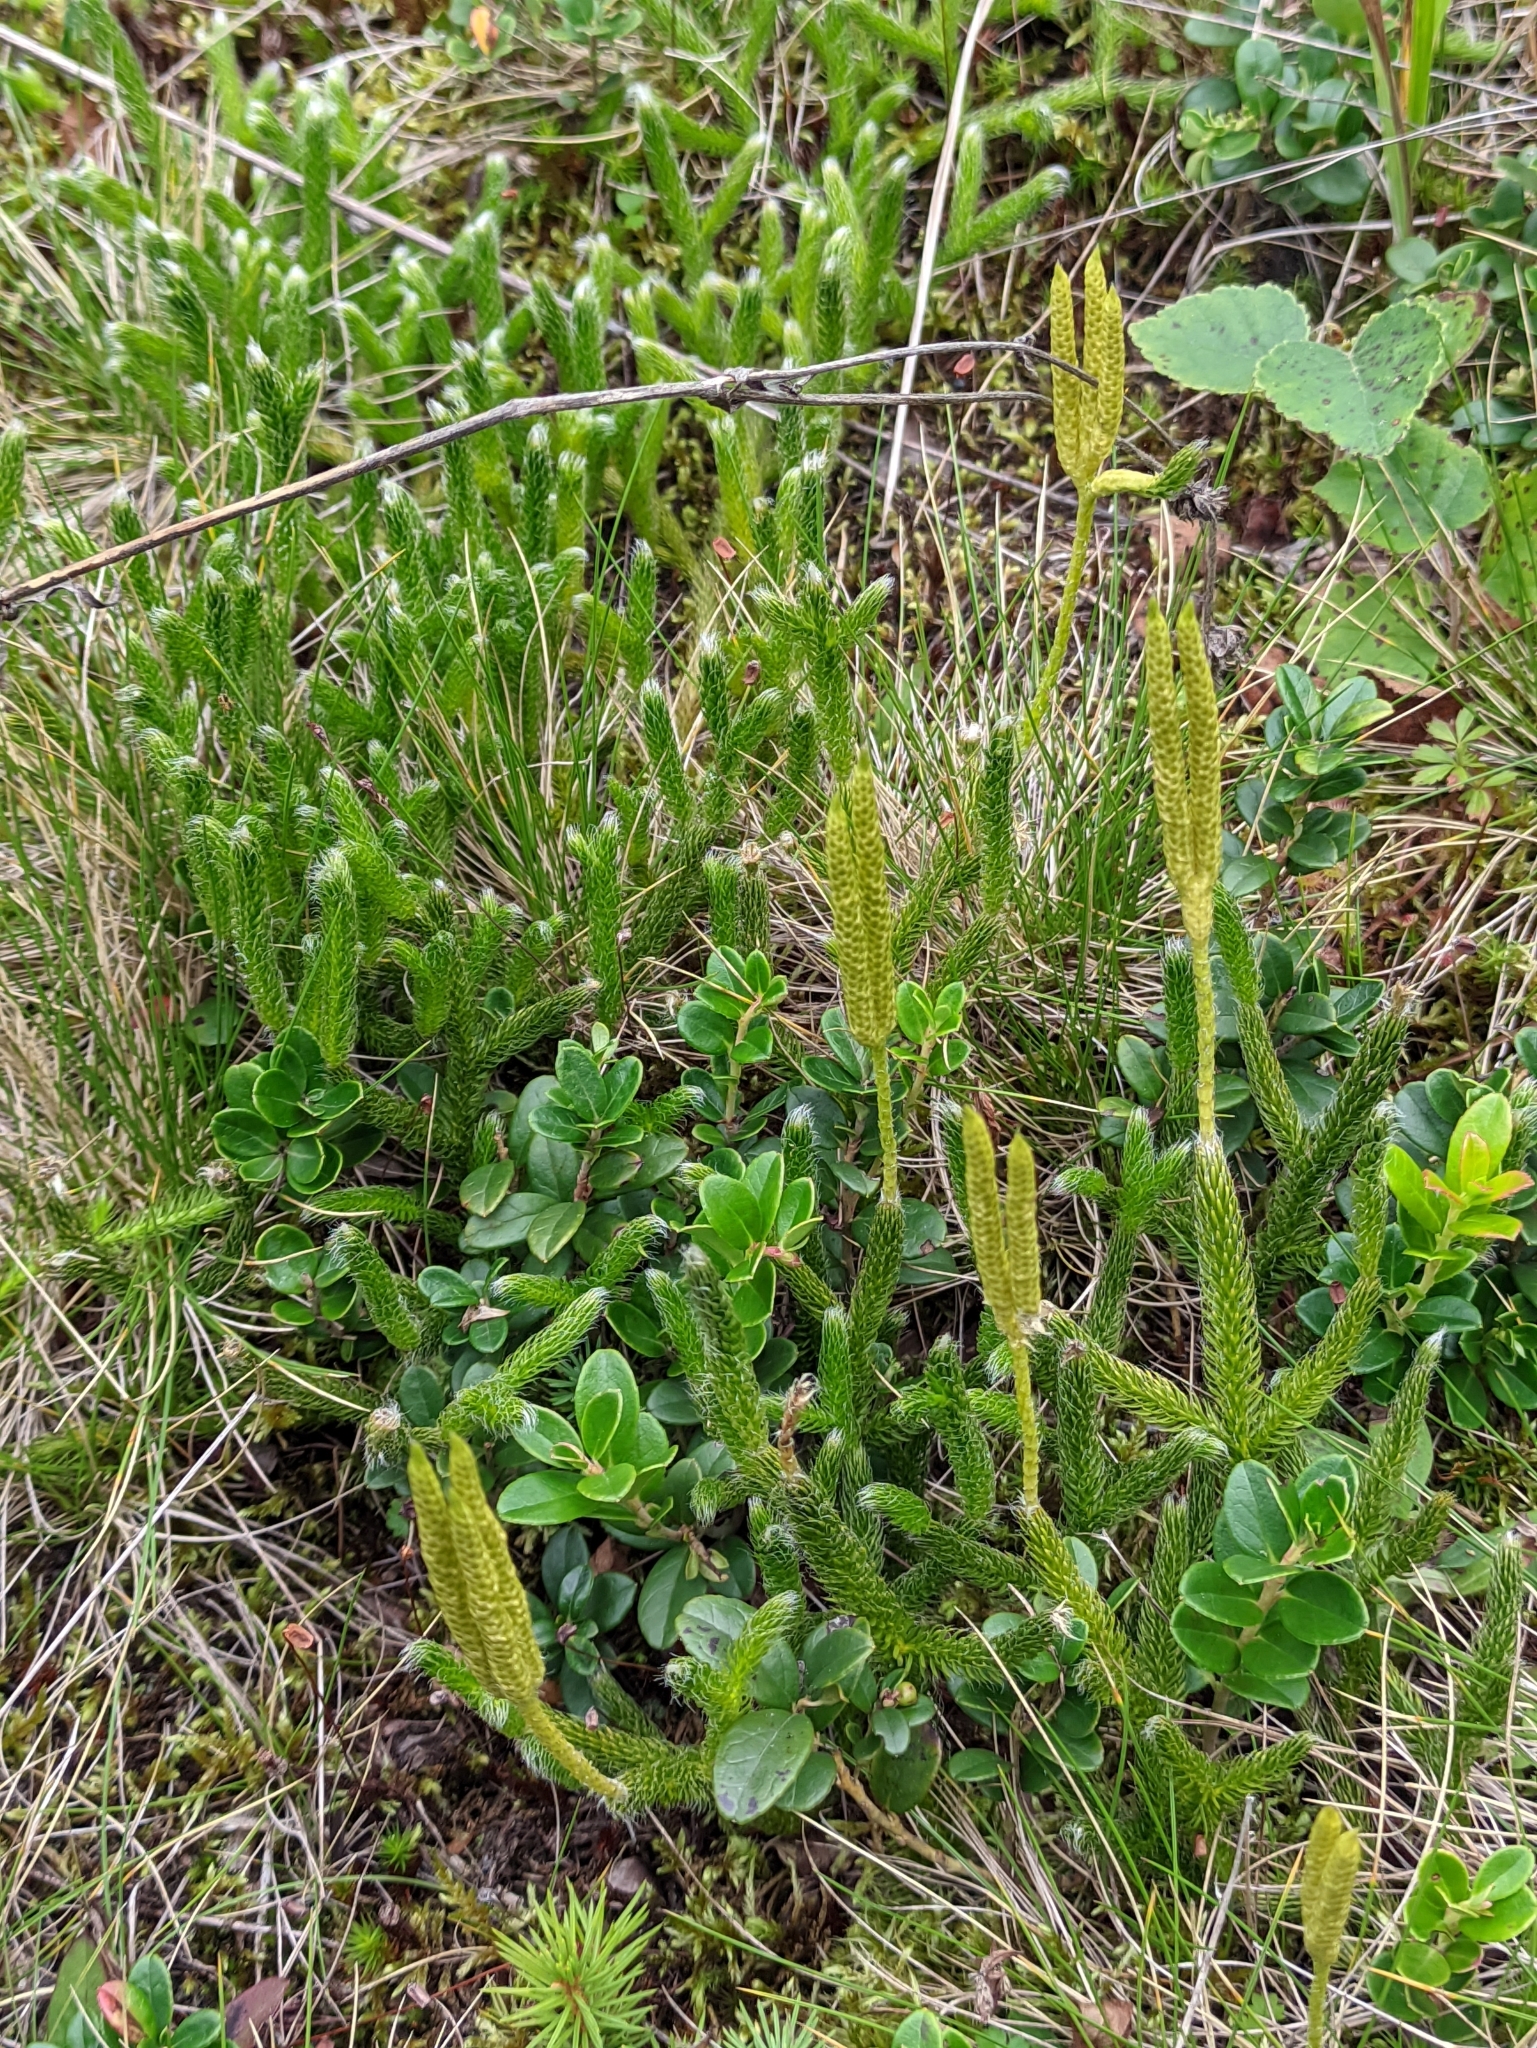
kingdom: Plantae
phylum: Tracheophyta
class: Lycopodiopsida
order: Lycopodiales
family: Lycopodiaceae
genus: Lycopodium
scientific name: Lycopodium clavatum
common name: Stag's-horn clubmoss
